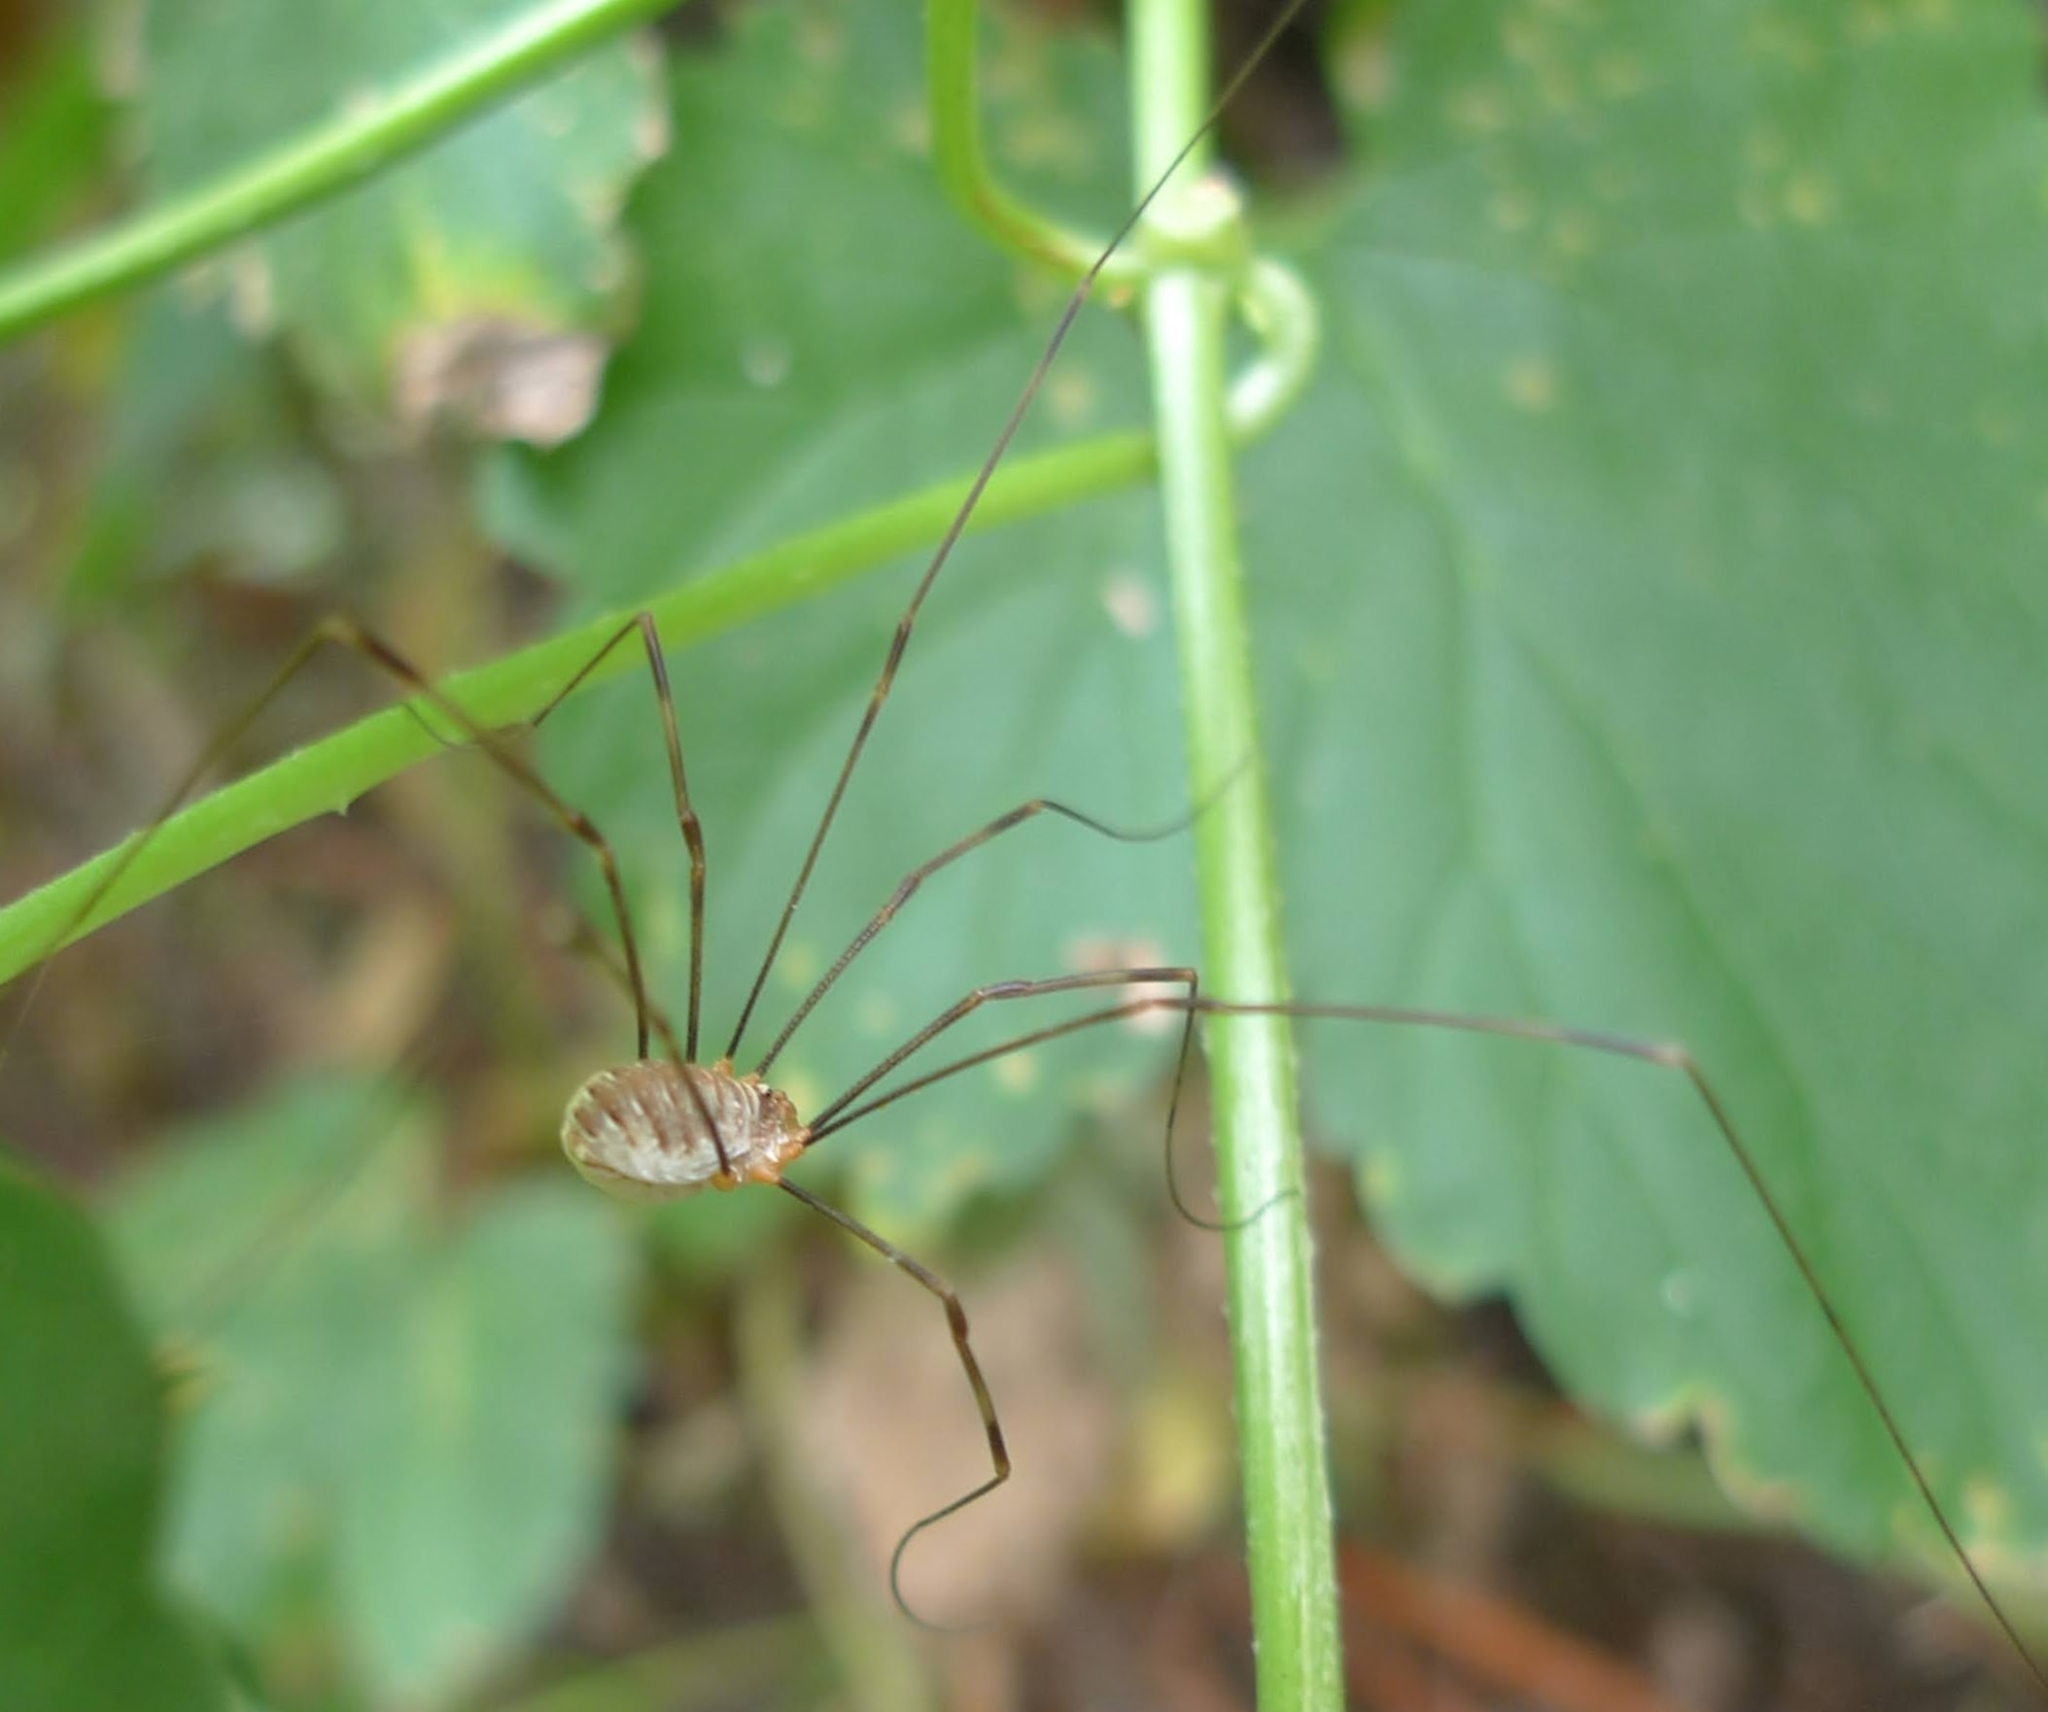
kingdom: Animalia
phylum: Arthropoda
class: Arachnida
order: Opiliones
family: Phalangiidae
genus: Opilio
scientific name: Opilio canestrinii
